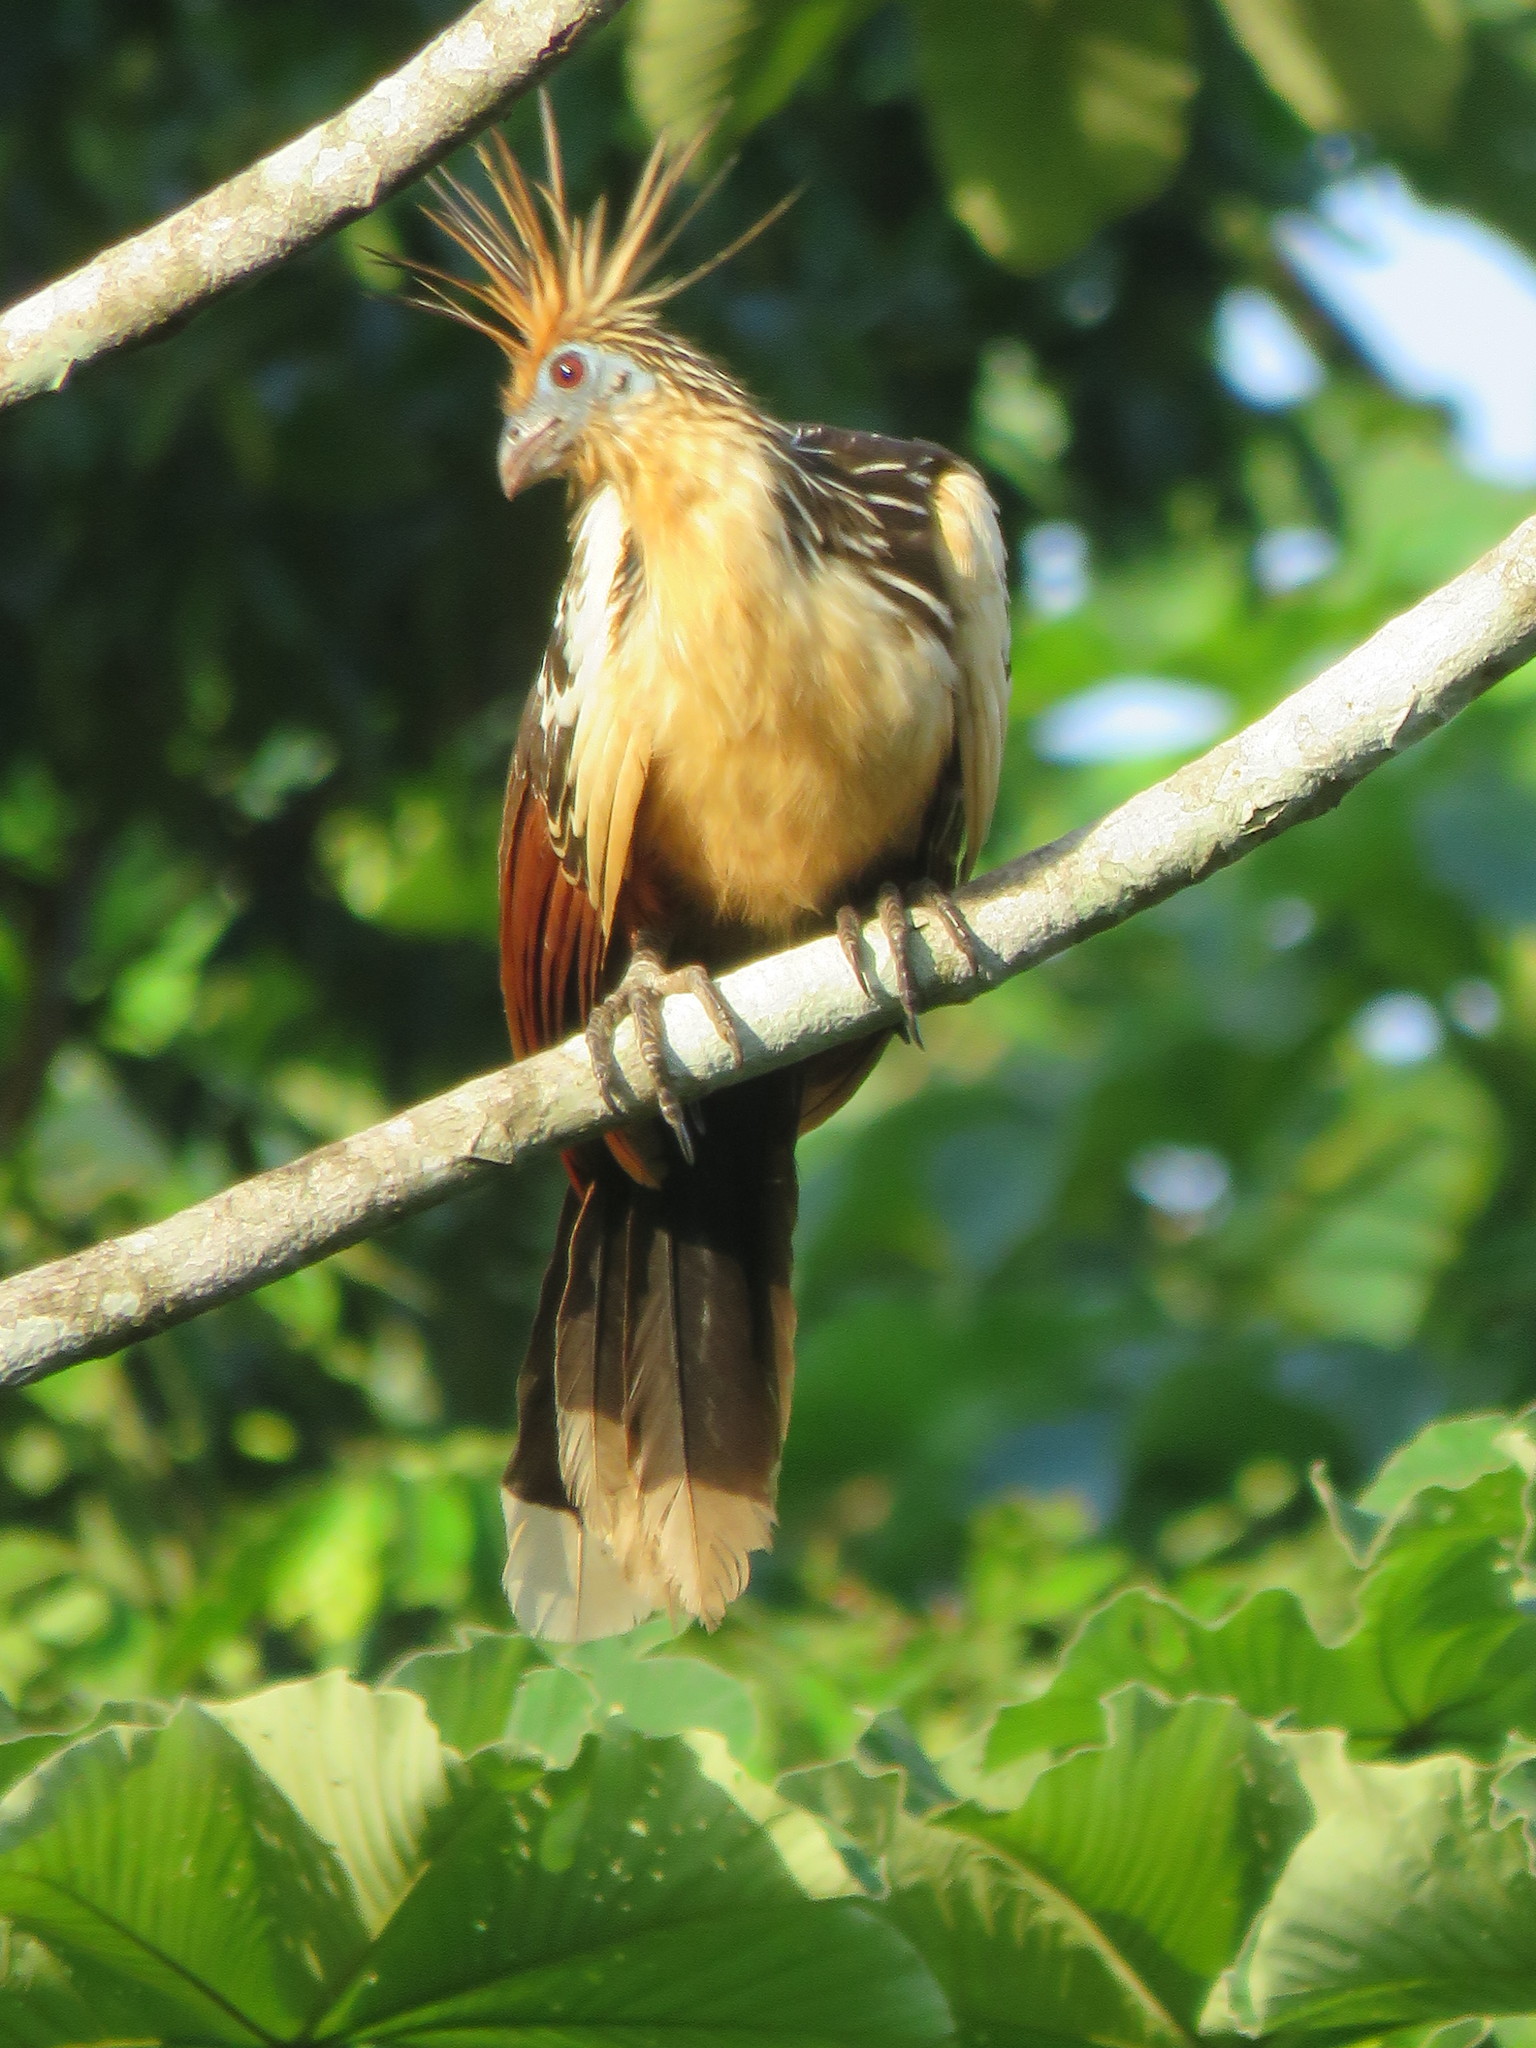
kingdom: Animalia
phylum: Chordata
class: Aves
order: Opisthocomiformes
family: Opisthocomidae
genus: Opisthocomus
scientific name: Opisthocomus hoazin
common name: Hoatzin
